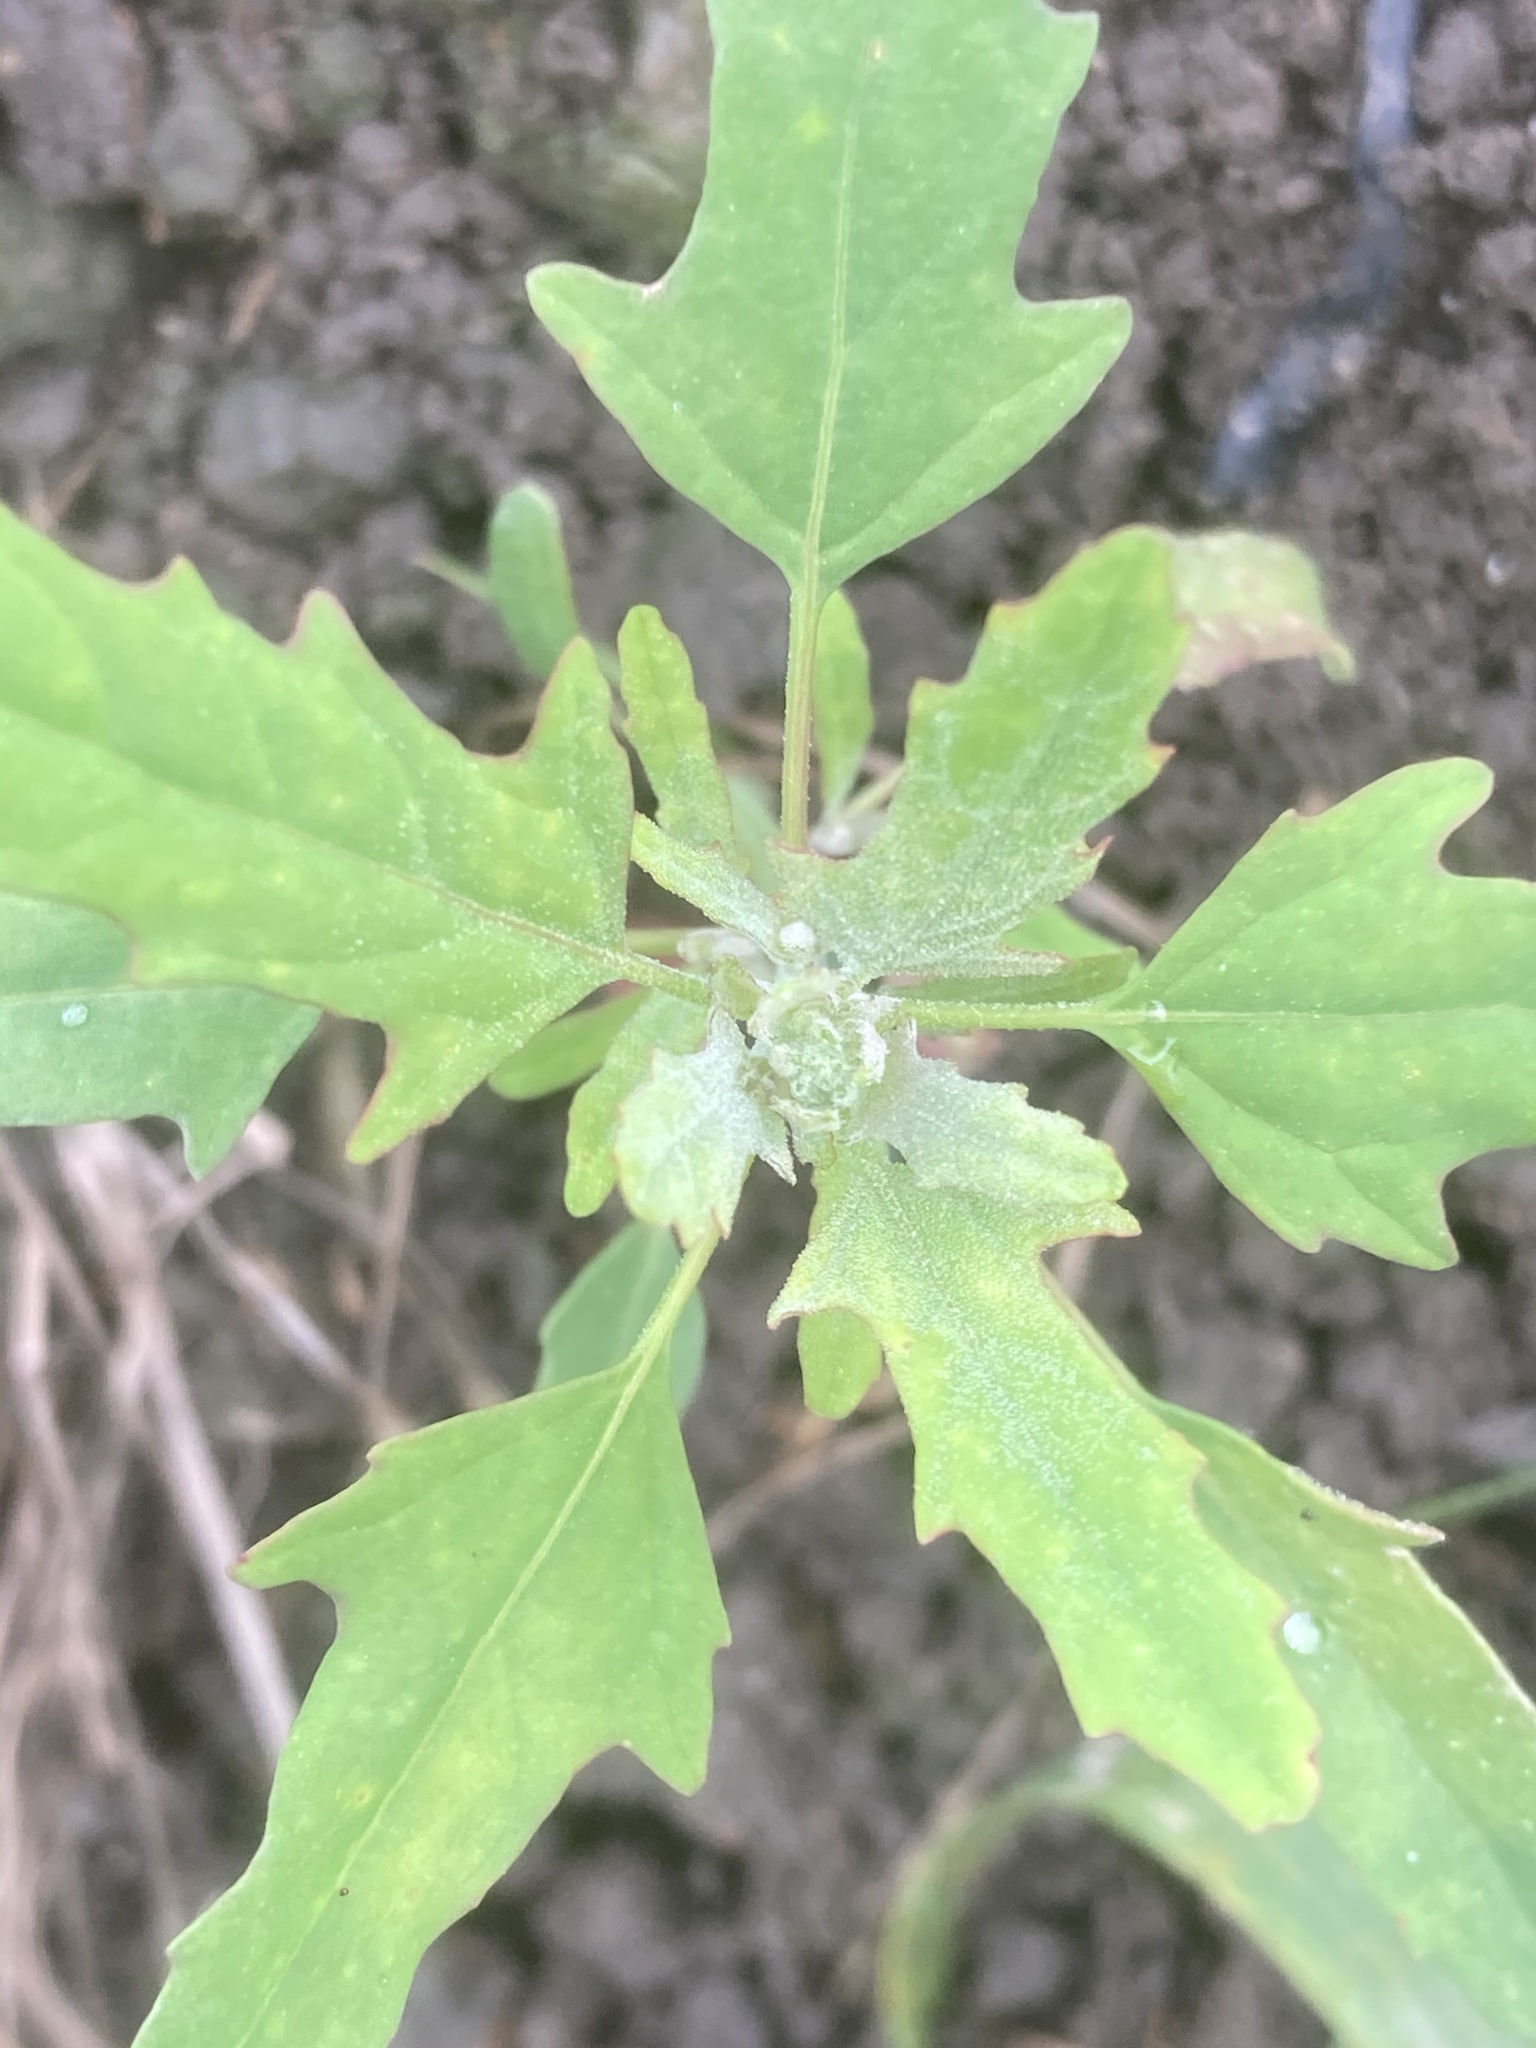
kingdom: Plantae
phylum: Tracheophyta
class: Magnoliopsida
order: Caryophyllales
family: Amaranthaceae
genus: Chenopodium
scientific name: Chenopodium ficifolium
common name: Fig-leaved goosefoot
